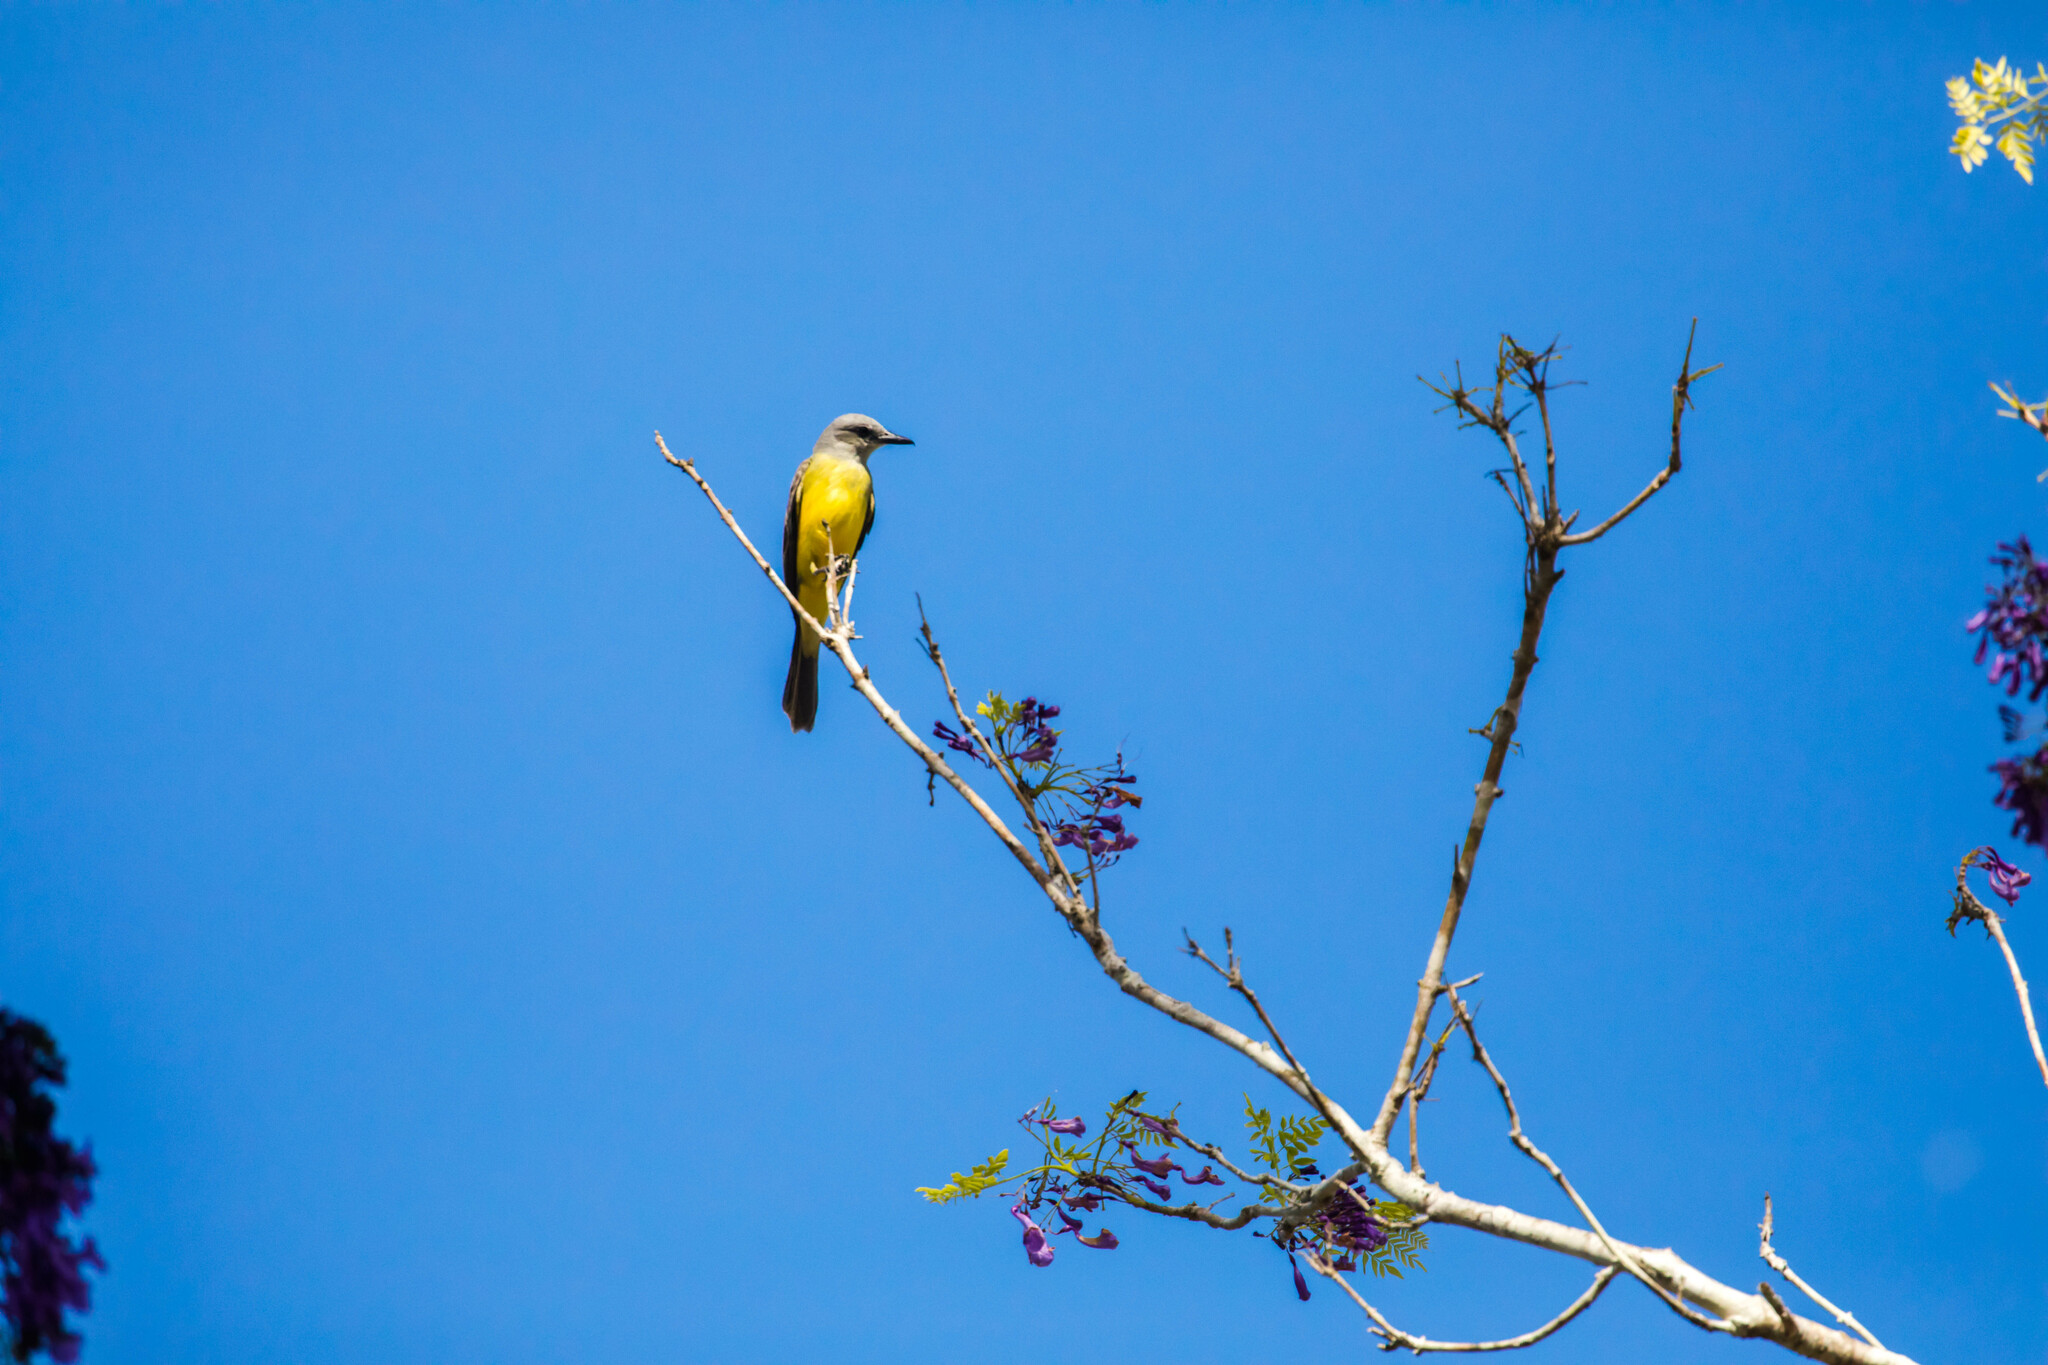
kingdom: Animalia
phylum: Chordata
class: Aves
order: Passeriformes
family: Tyrannidae
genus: Tyrannus
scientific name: Tyrannus melancholicus
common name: Tropical kingbird
